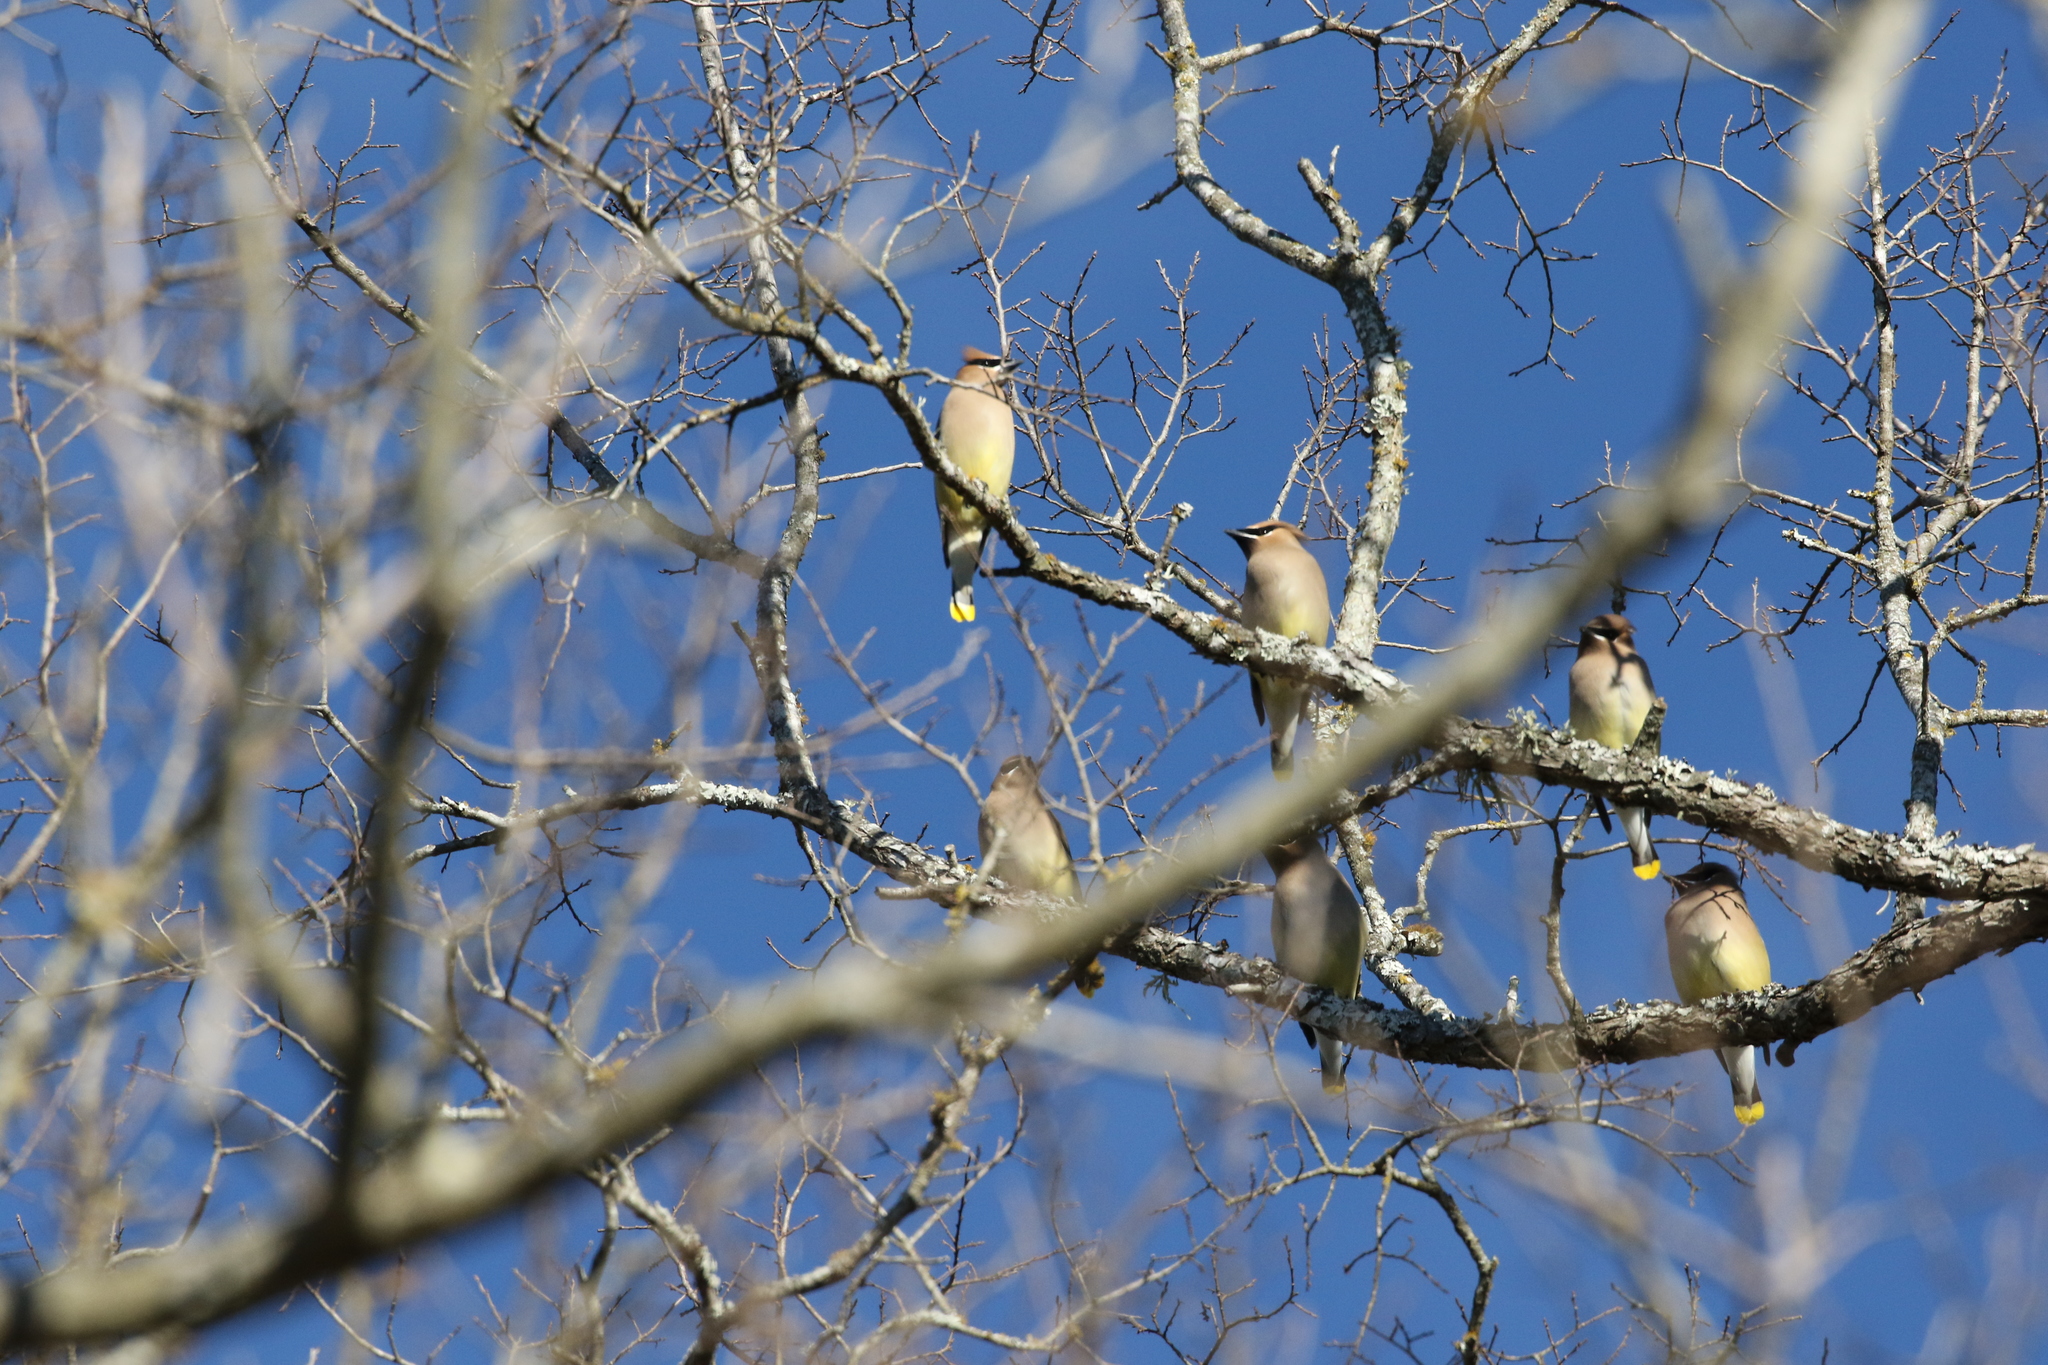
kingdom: Animalia
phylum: Chordata
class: Aves
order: Passeriformes
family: Bombycillidae
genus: Bombycilla
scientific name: Bombycilla cedrorum
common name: Cedar waxwing
